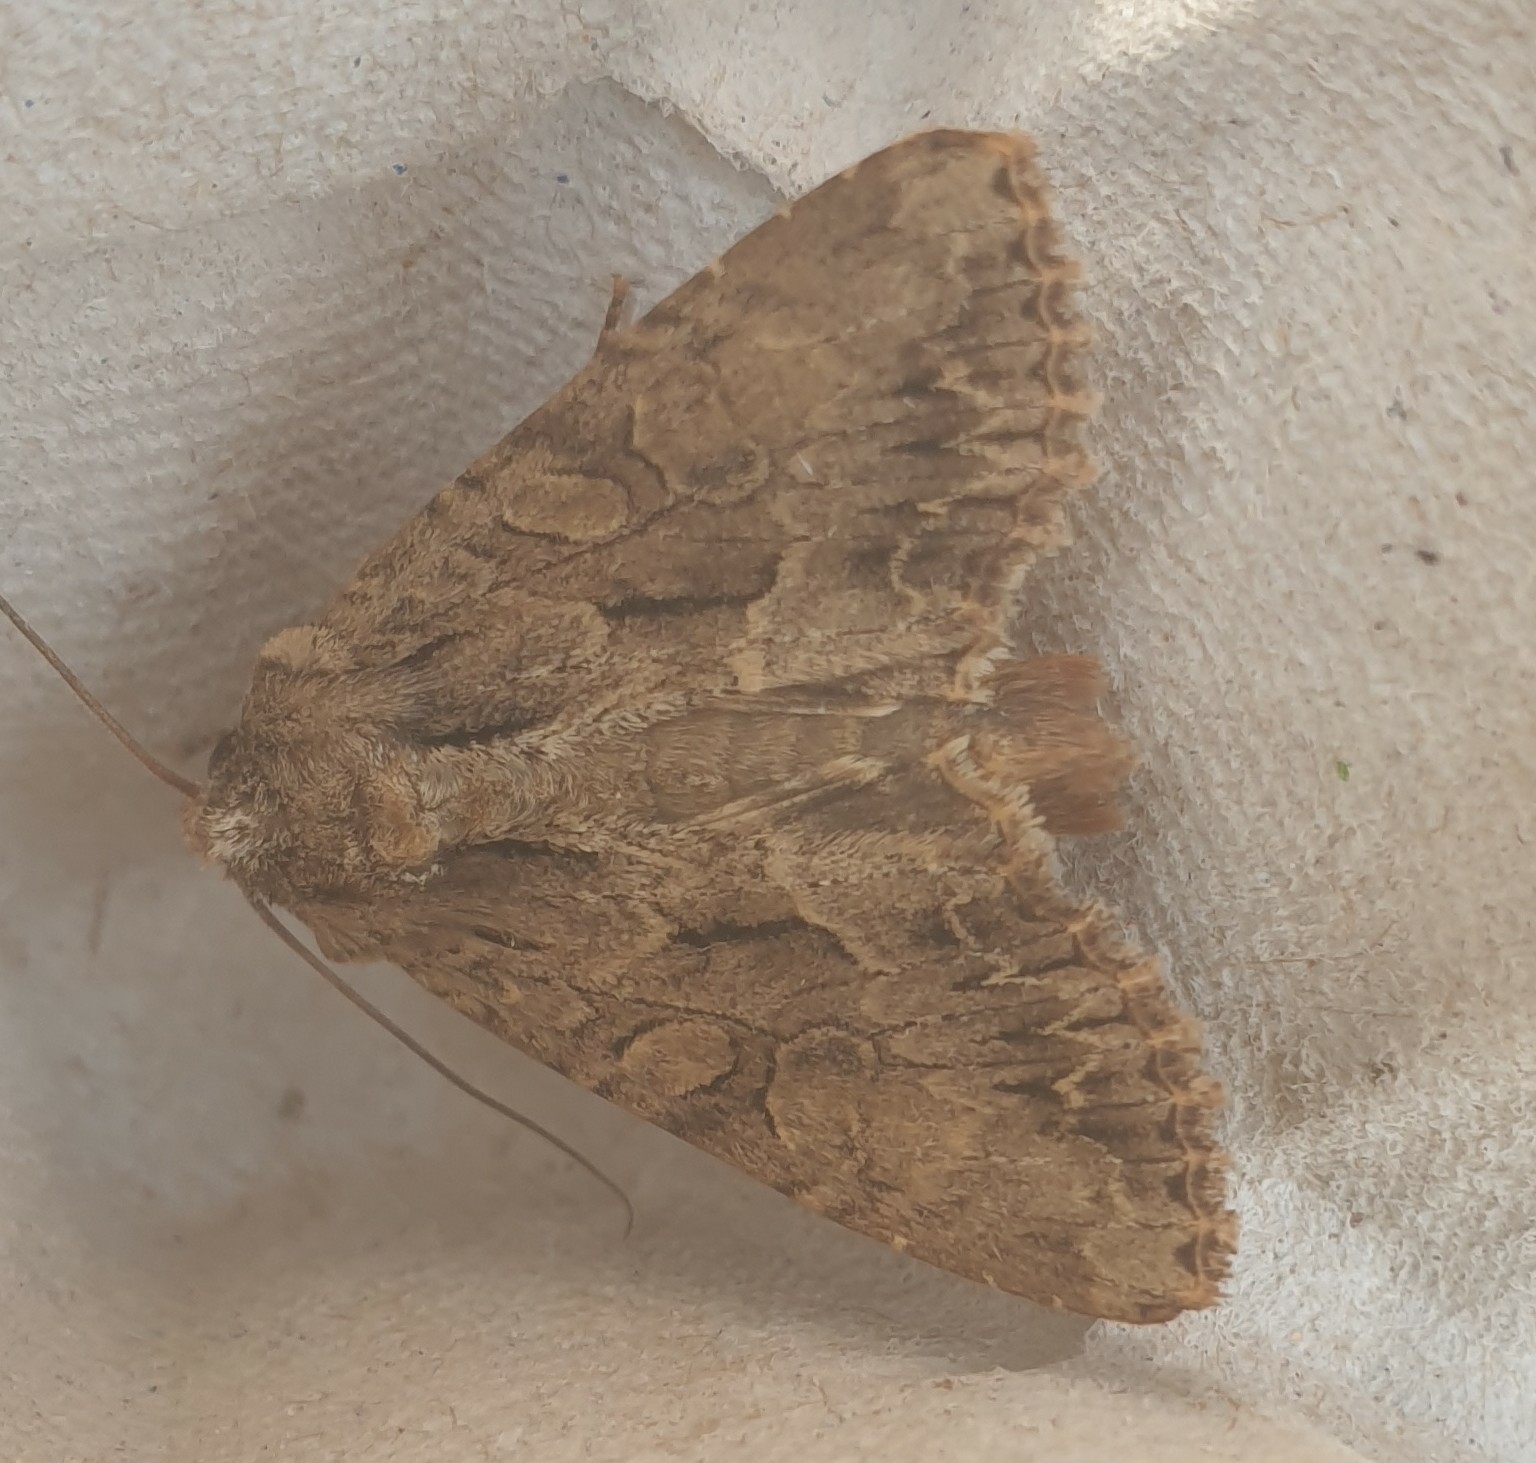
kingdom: Animalia
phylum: Arthropoda
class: Insecta
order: Lepidoptera
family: Noctuidae
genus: Apamea
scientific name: Apamea monoglypha
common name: Dark arches
